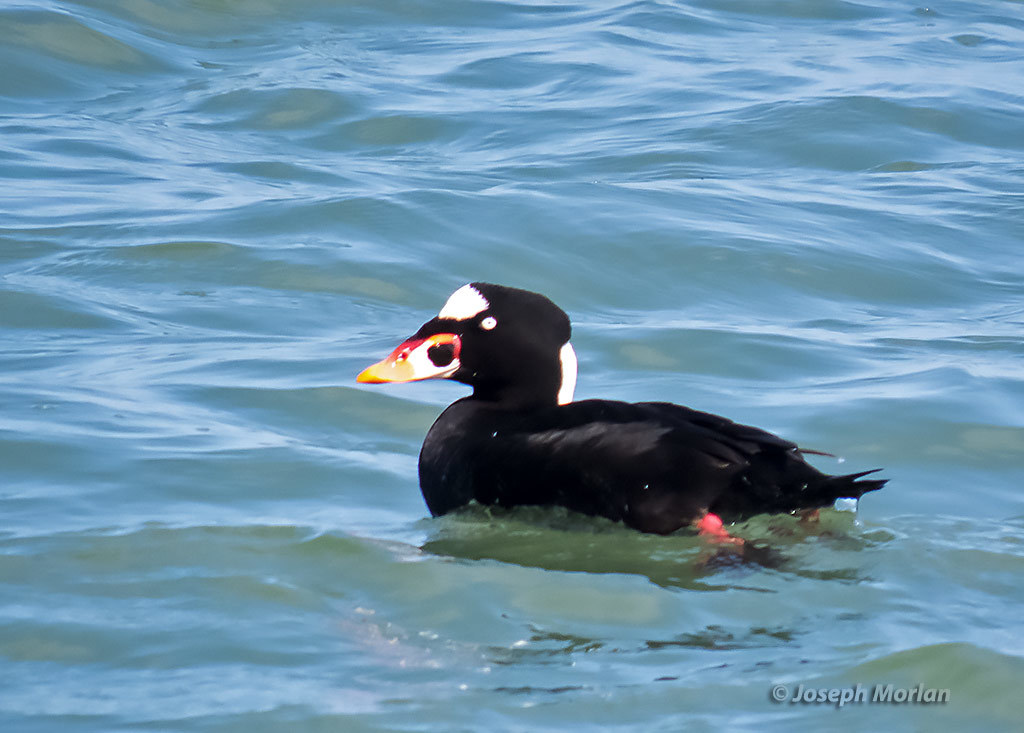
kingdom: Animalia
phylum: Chordata
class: Aves
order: Anseriformes
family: Anatidae
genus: Melanitta
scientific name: Melanitta perspicillata
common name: Surf scoter
